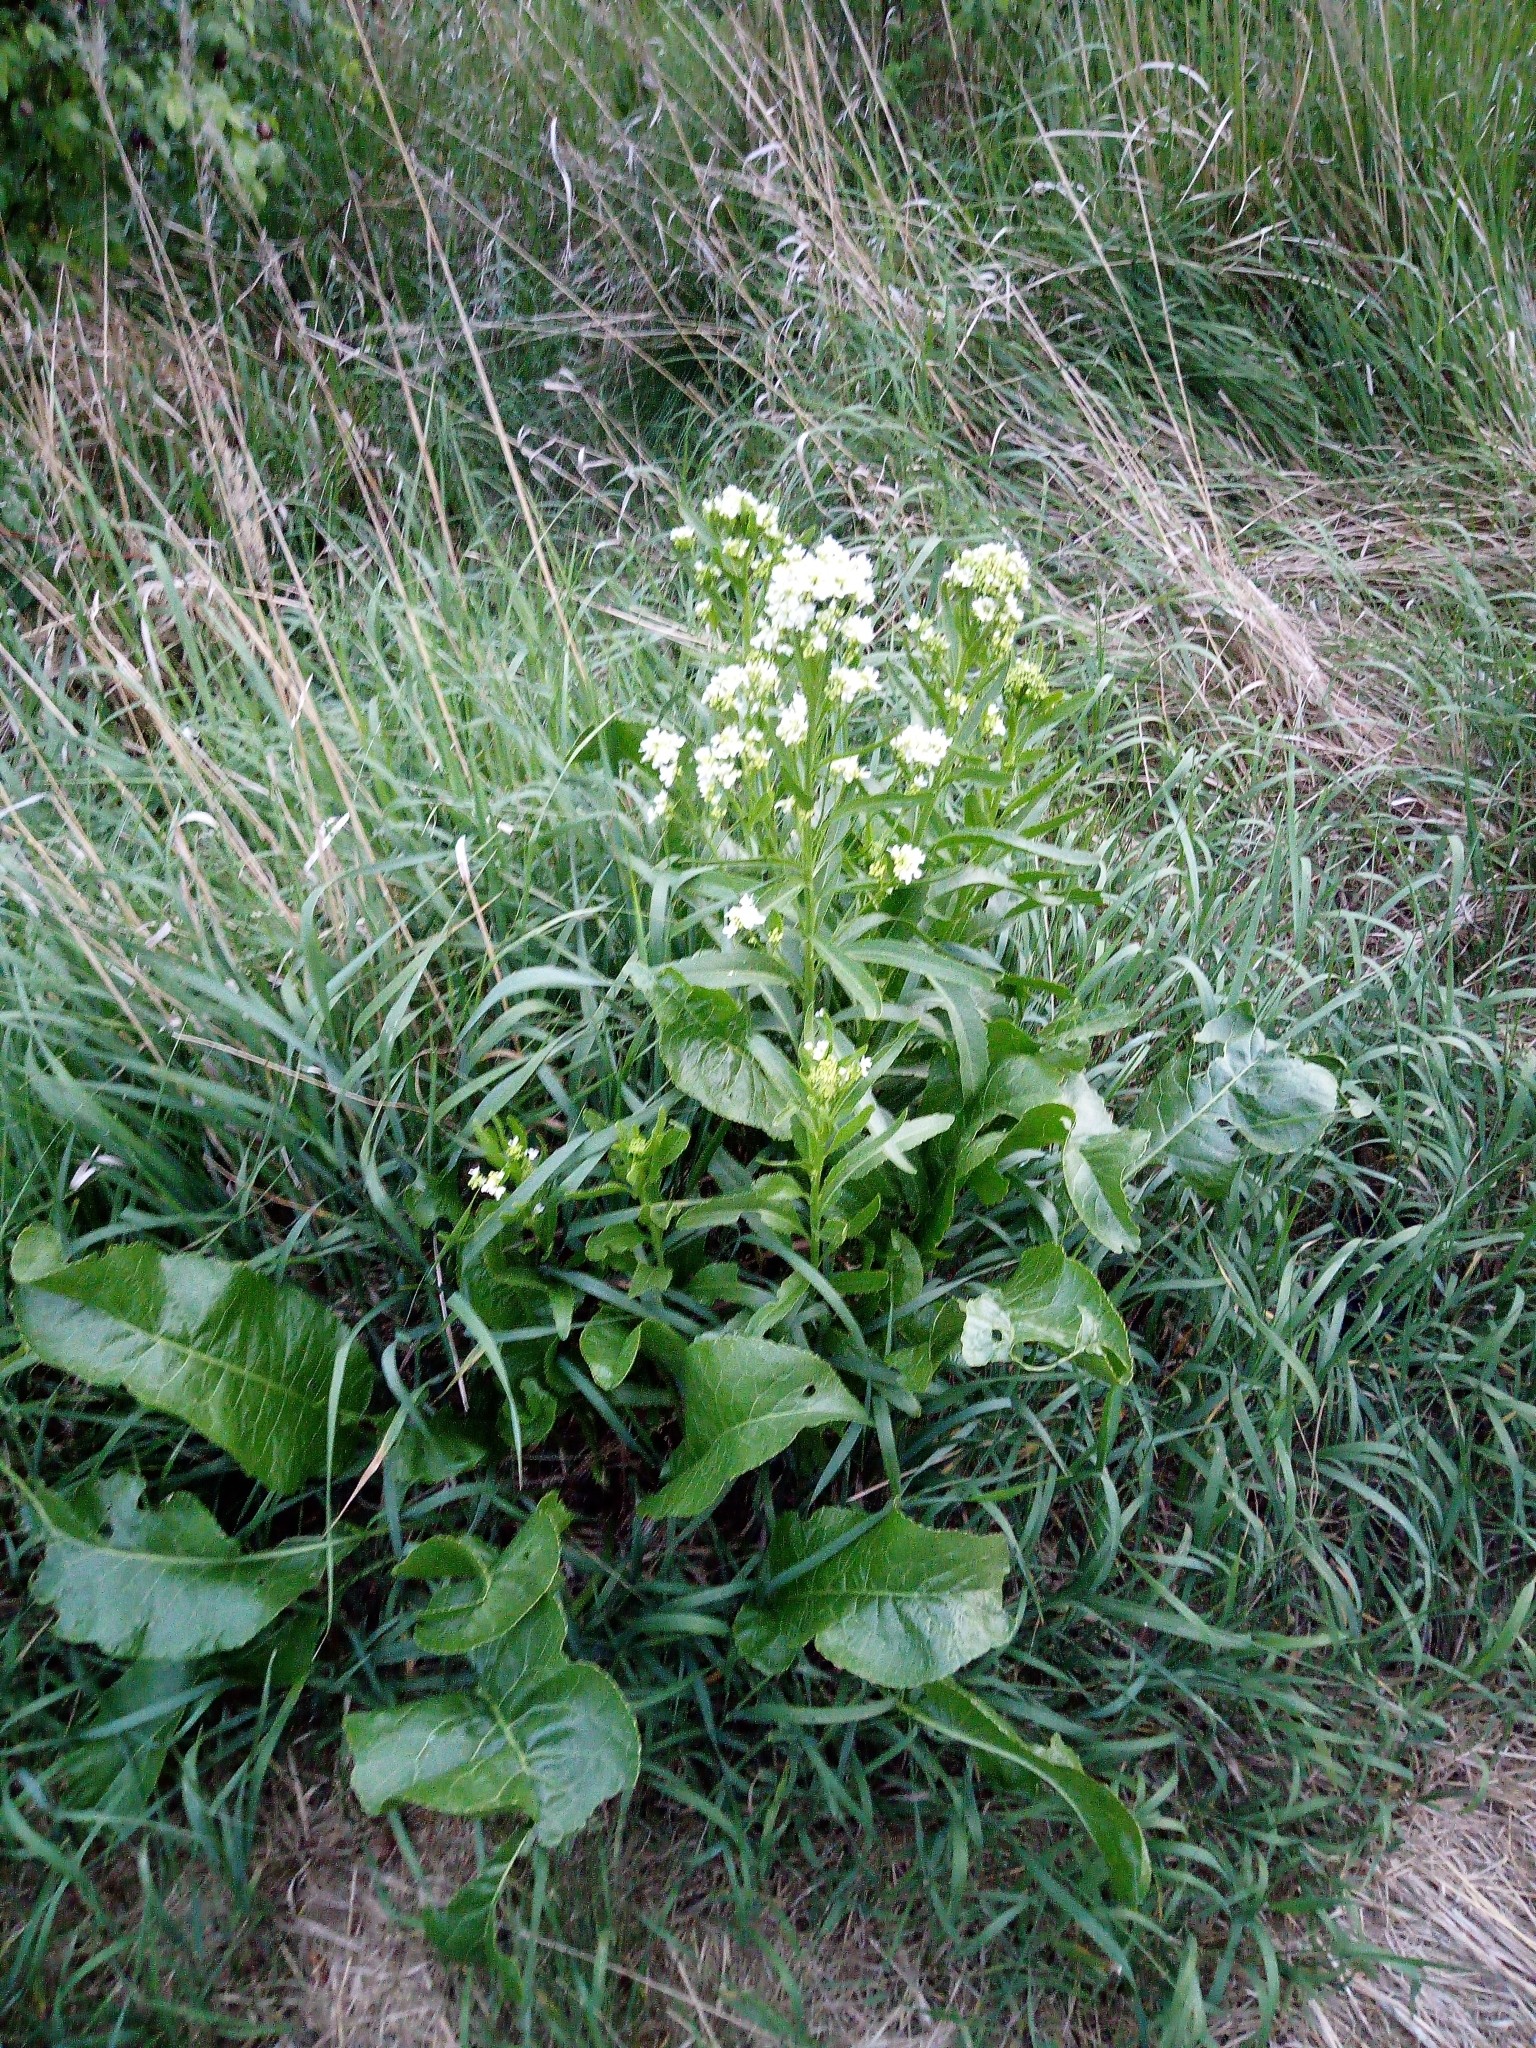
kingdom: Plantae
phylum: Tracheophyta
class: Magnoliopsida
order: Brassicales
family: Brassicaceae
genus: Armoracia
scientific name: Armoracia rusticana
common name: Horseradish
